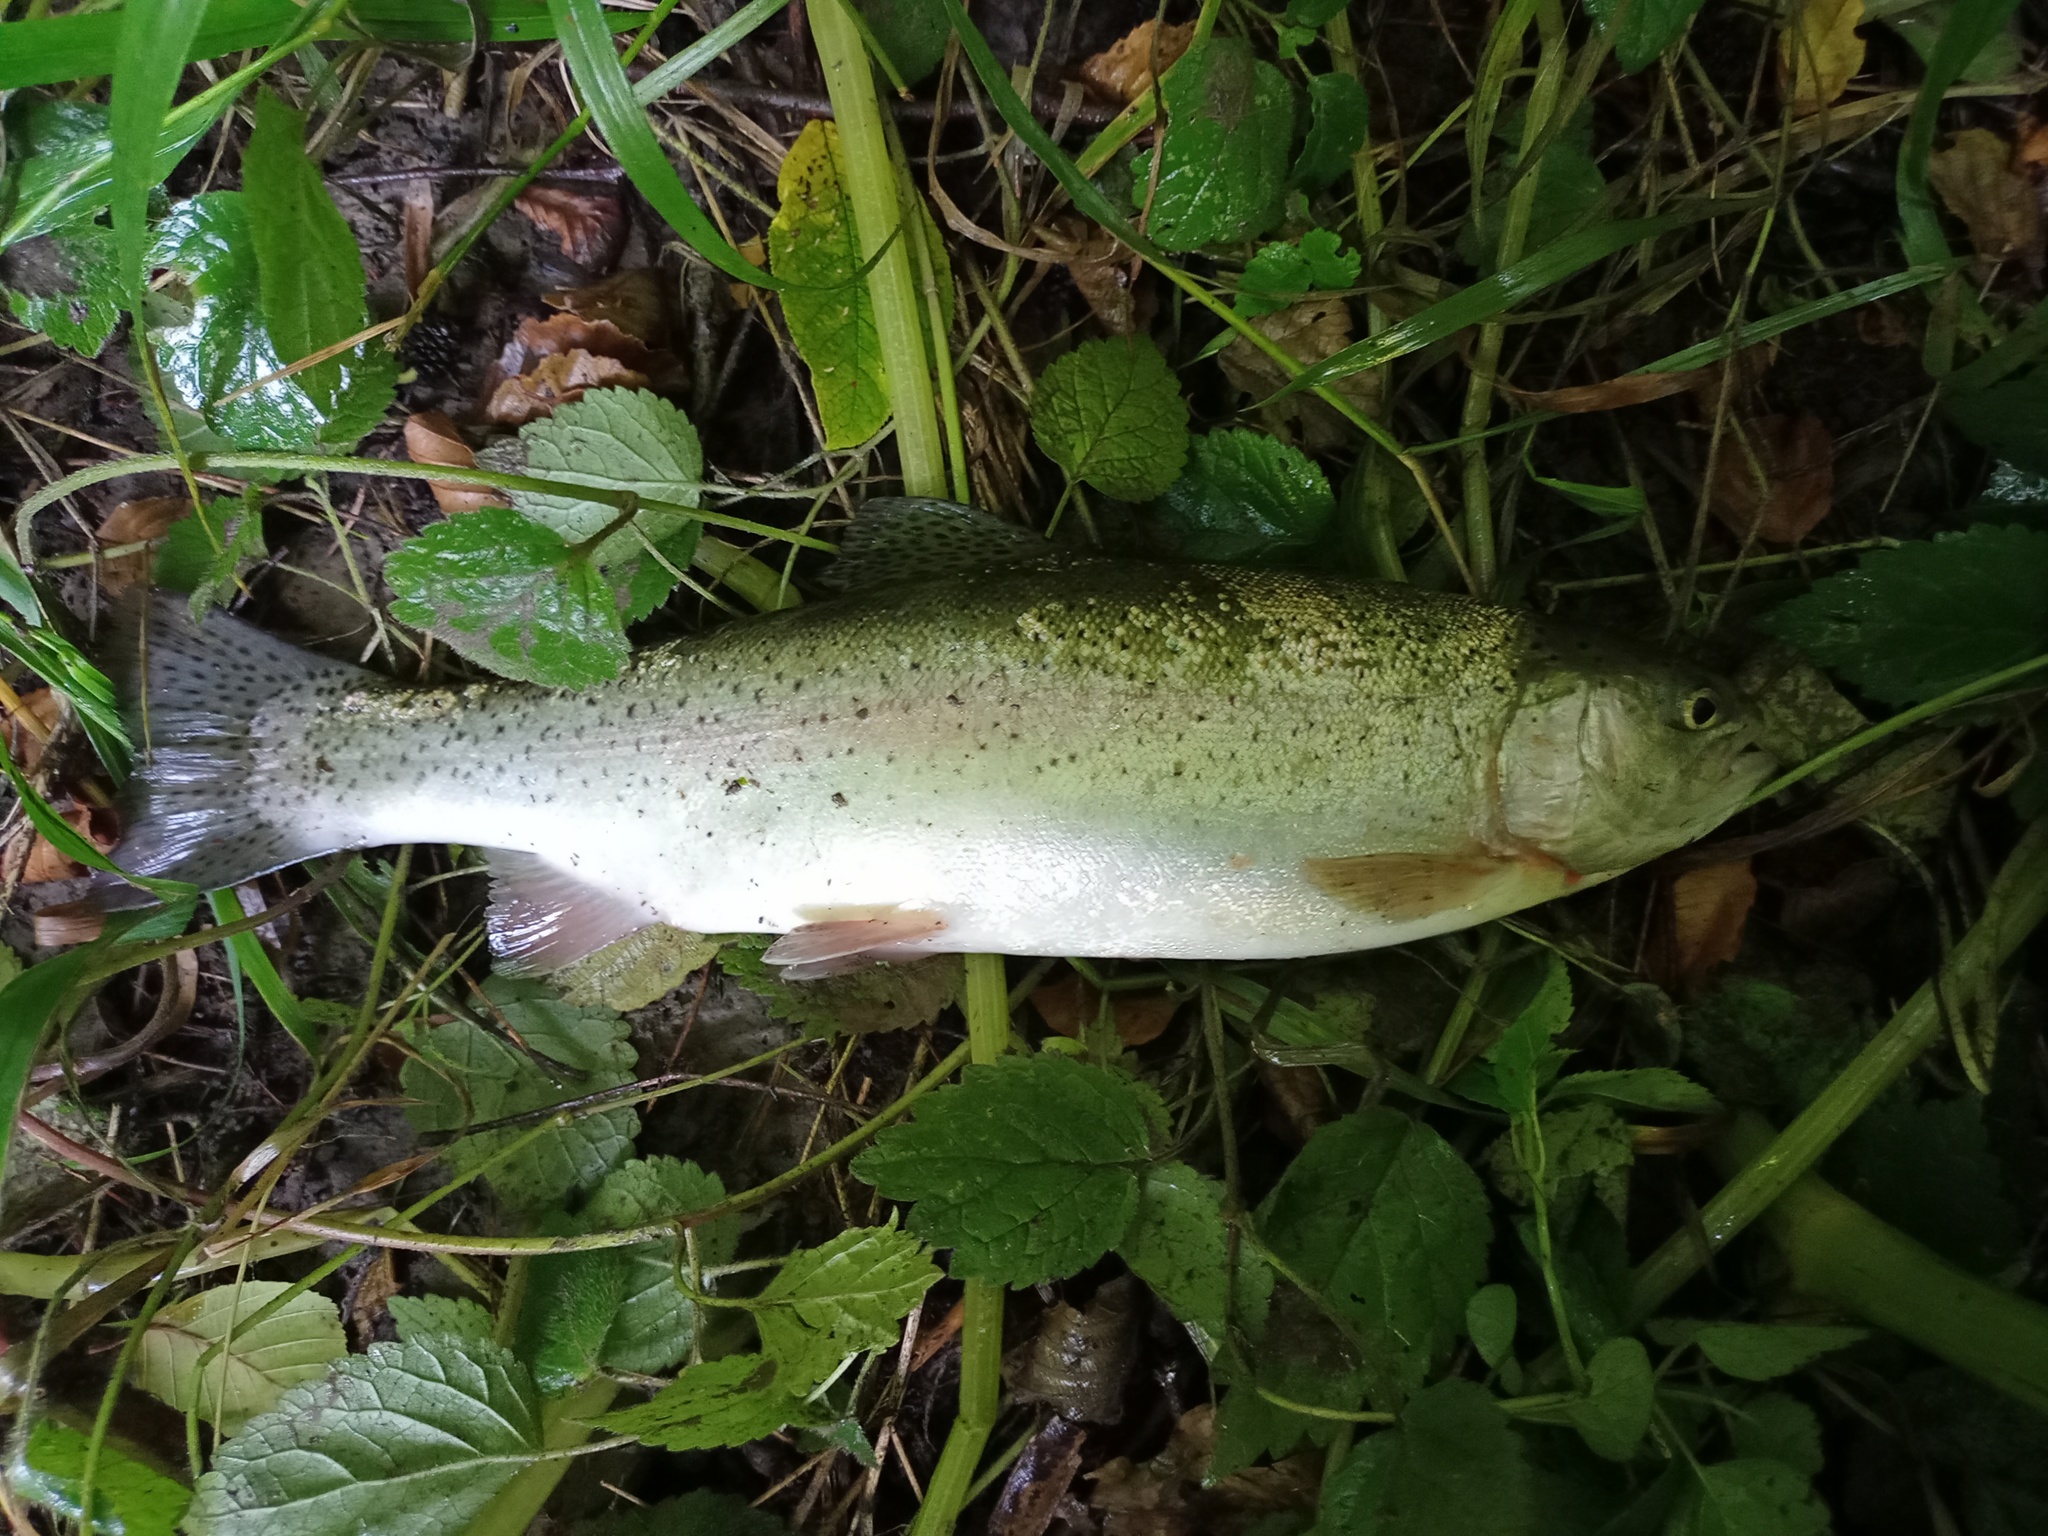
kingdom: Animalia
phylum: Chordata
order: Salmoniformes
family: Salmonidae
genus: Oncorhynchus
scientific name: Oncorhynchus mykiss
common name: Rainbow trout
